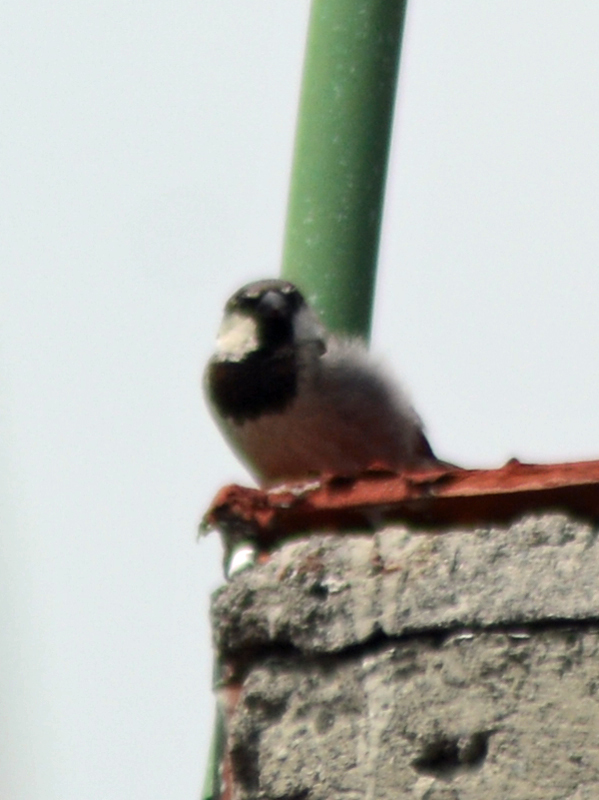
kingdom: Animalia
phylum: Chordata
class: Aves
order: Passeriformes
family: Passeridae
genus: Passer
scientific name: Passer domesticus
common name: House sparrow
